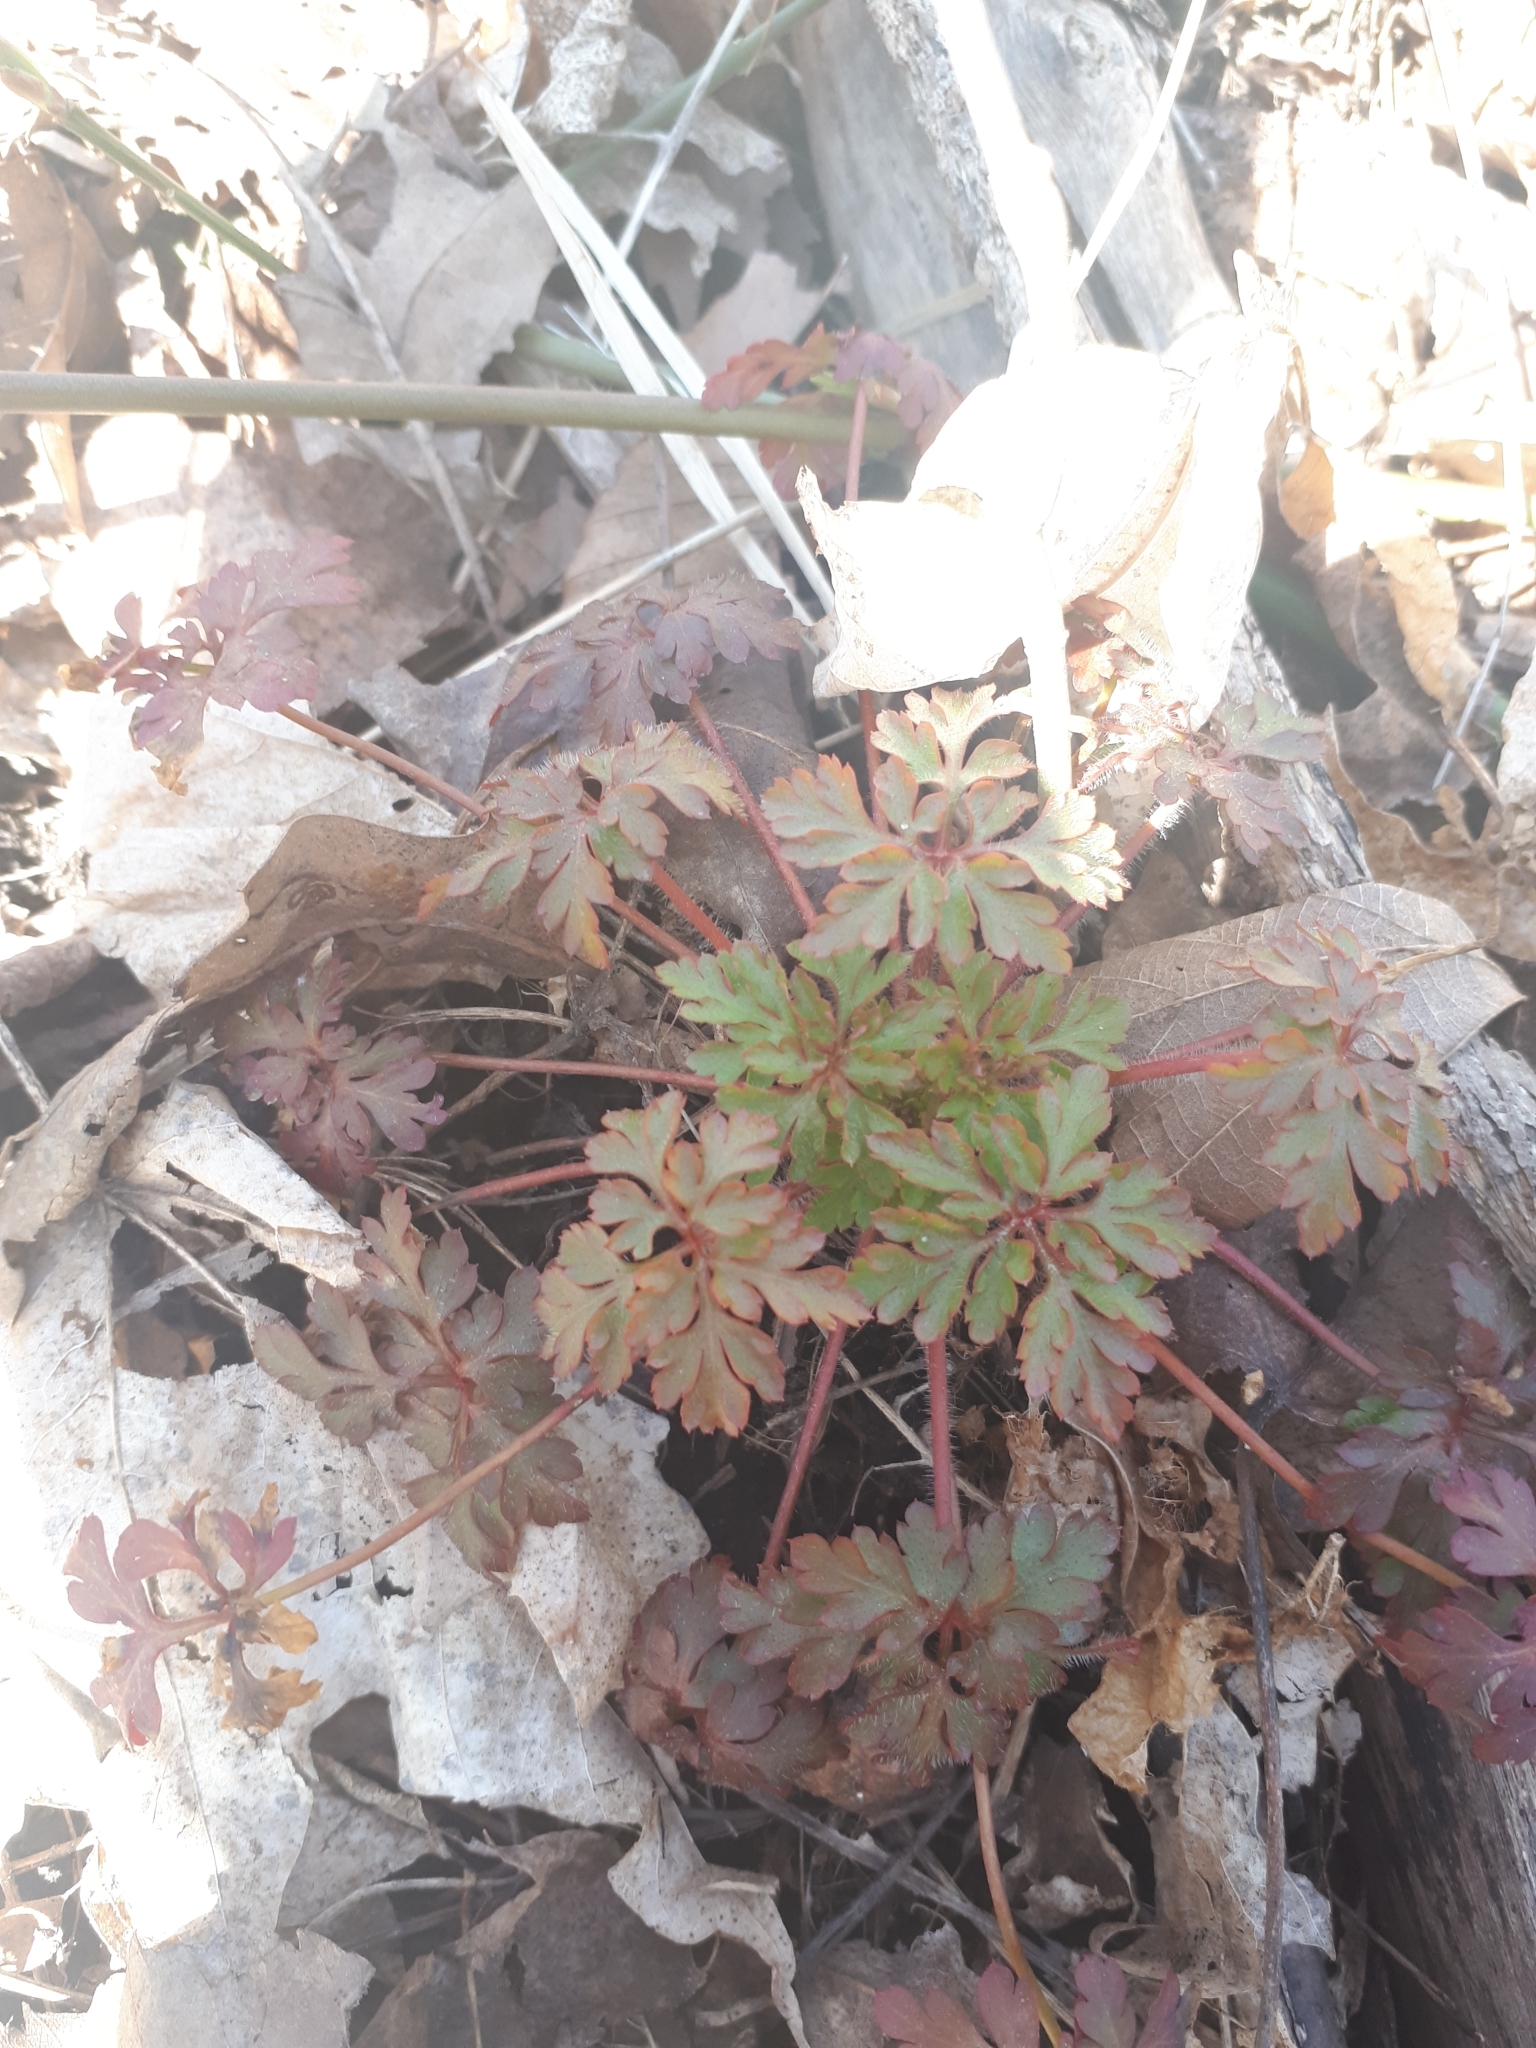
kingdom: Plantae
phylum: Tracheophyta
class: Magnoliopsida
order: Geraniales
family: Geraniaceae
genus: Geranium
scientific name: Geranium robertianum
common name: Herb-robert
